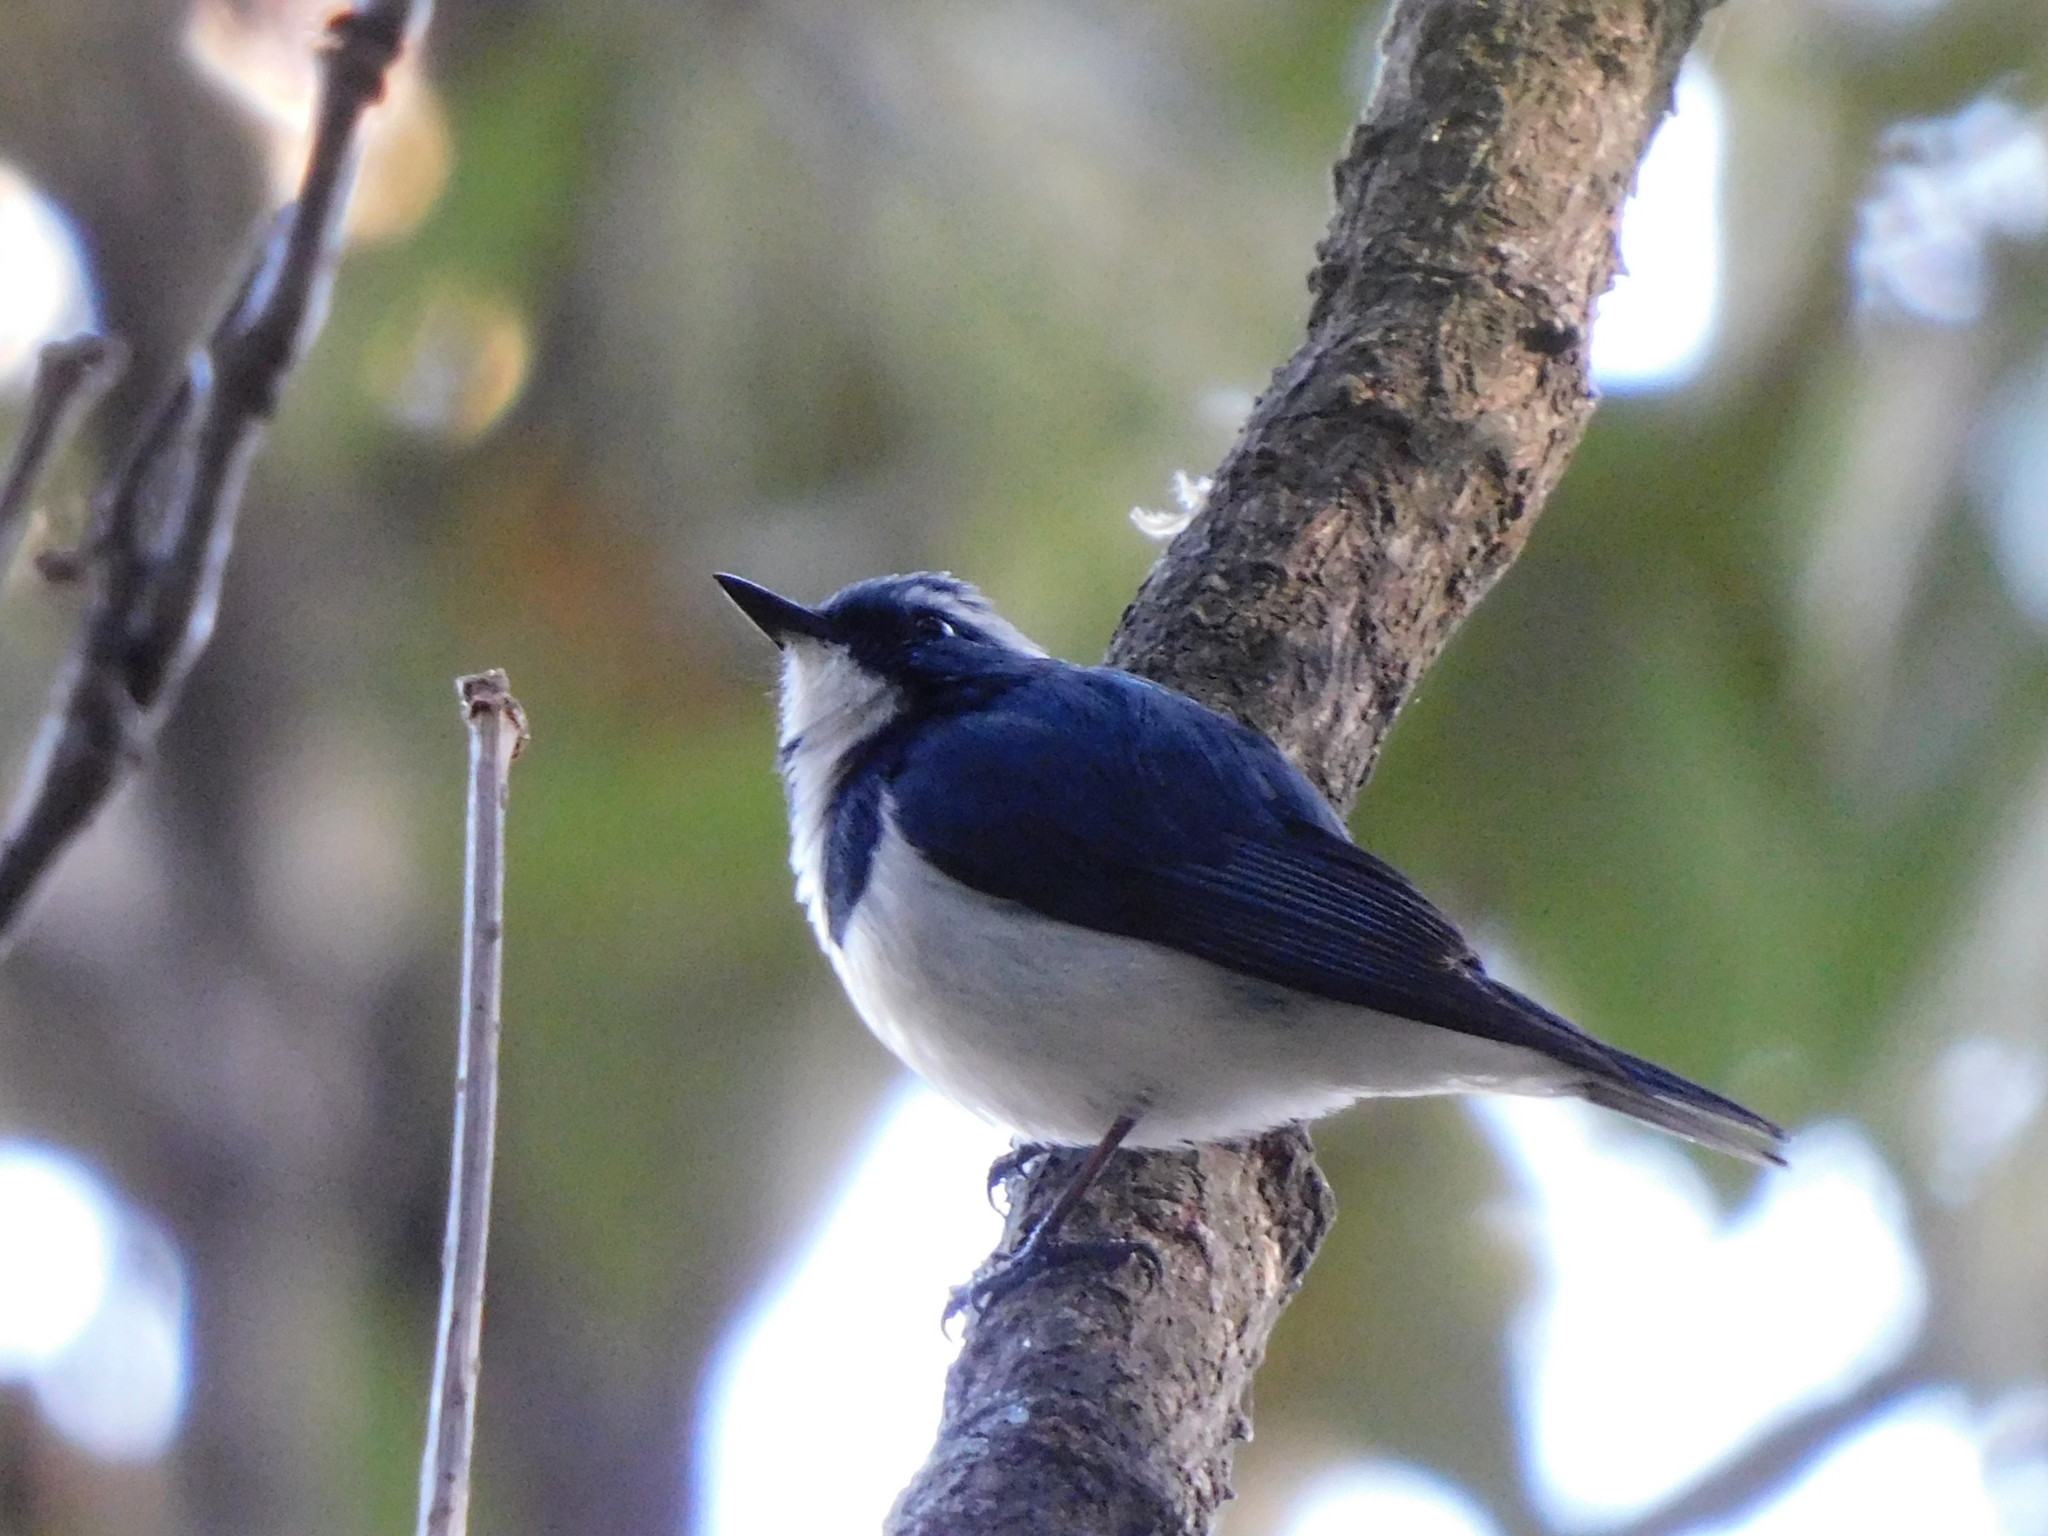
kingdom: Animalia
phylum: Chordata
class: Aves
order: Passeriformes
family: Muscicapidae
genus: Ficedula
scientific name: Ficedula superciliaris
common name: Ultramarine flycatcher
